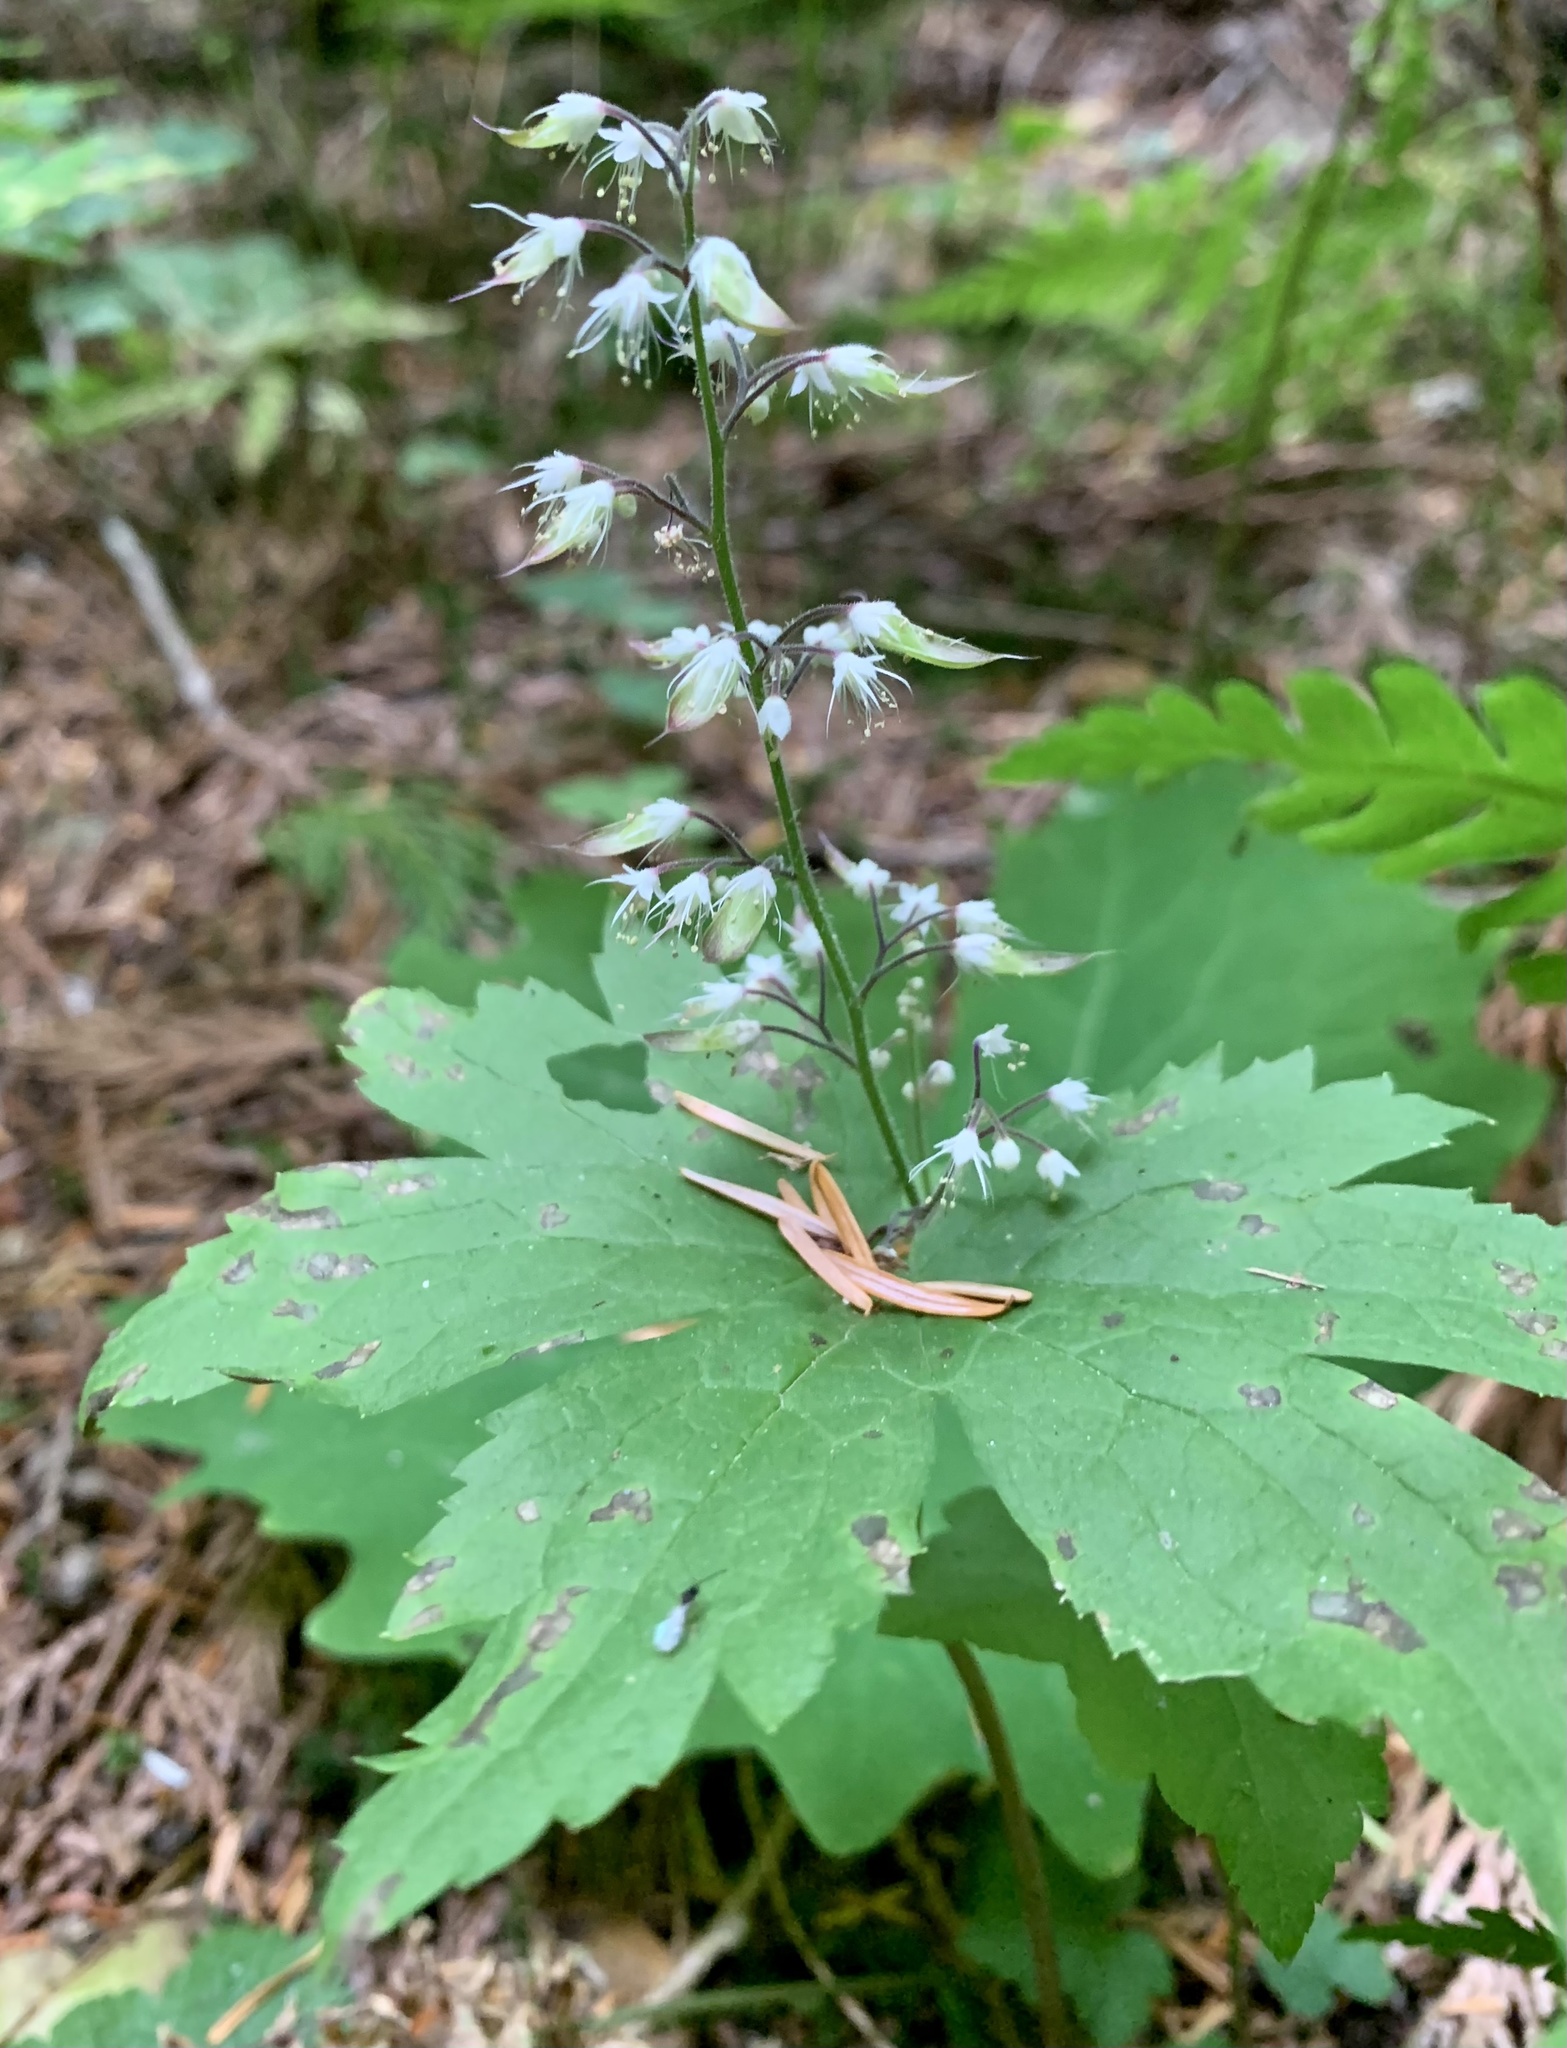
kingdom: Plantae
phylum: Tracheophyta
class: Magnoliopsida
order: Saxifragales
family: Saxifragaceae
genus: Tiarella
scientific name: Tiarella trifoliata
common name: Sugar-scoop
